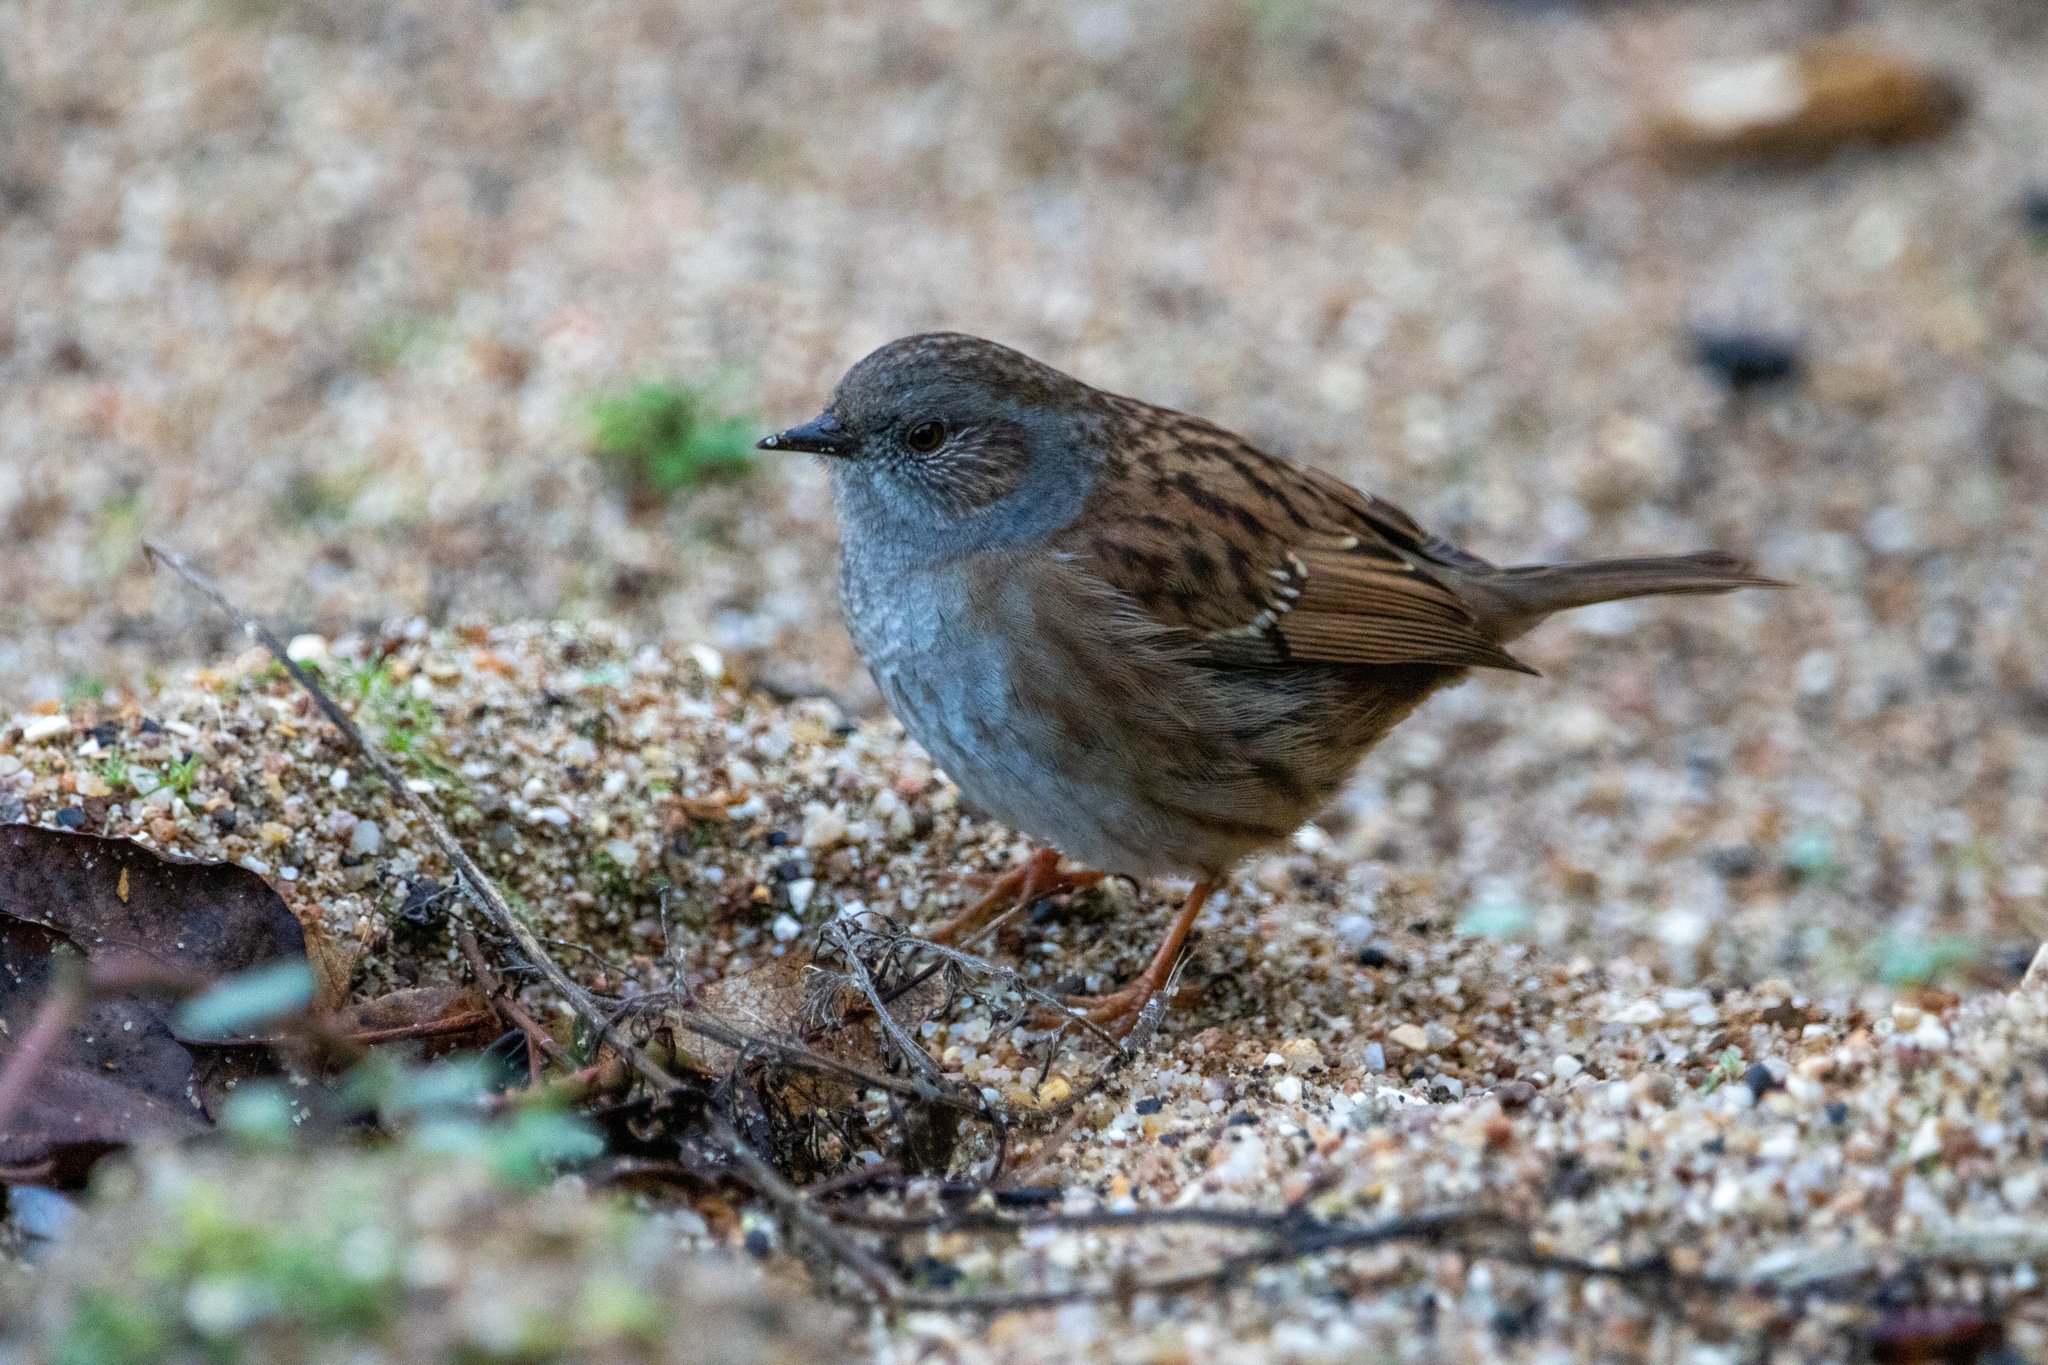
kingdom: Animalia
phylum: Chordata
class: Aves
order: Passeriformes
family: Prunellidae
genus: Prunella
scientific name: Prunella modularis
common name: Dunnock
